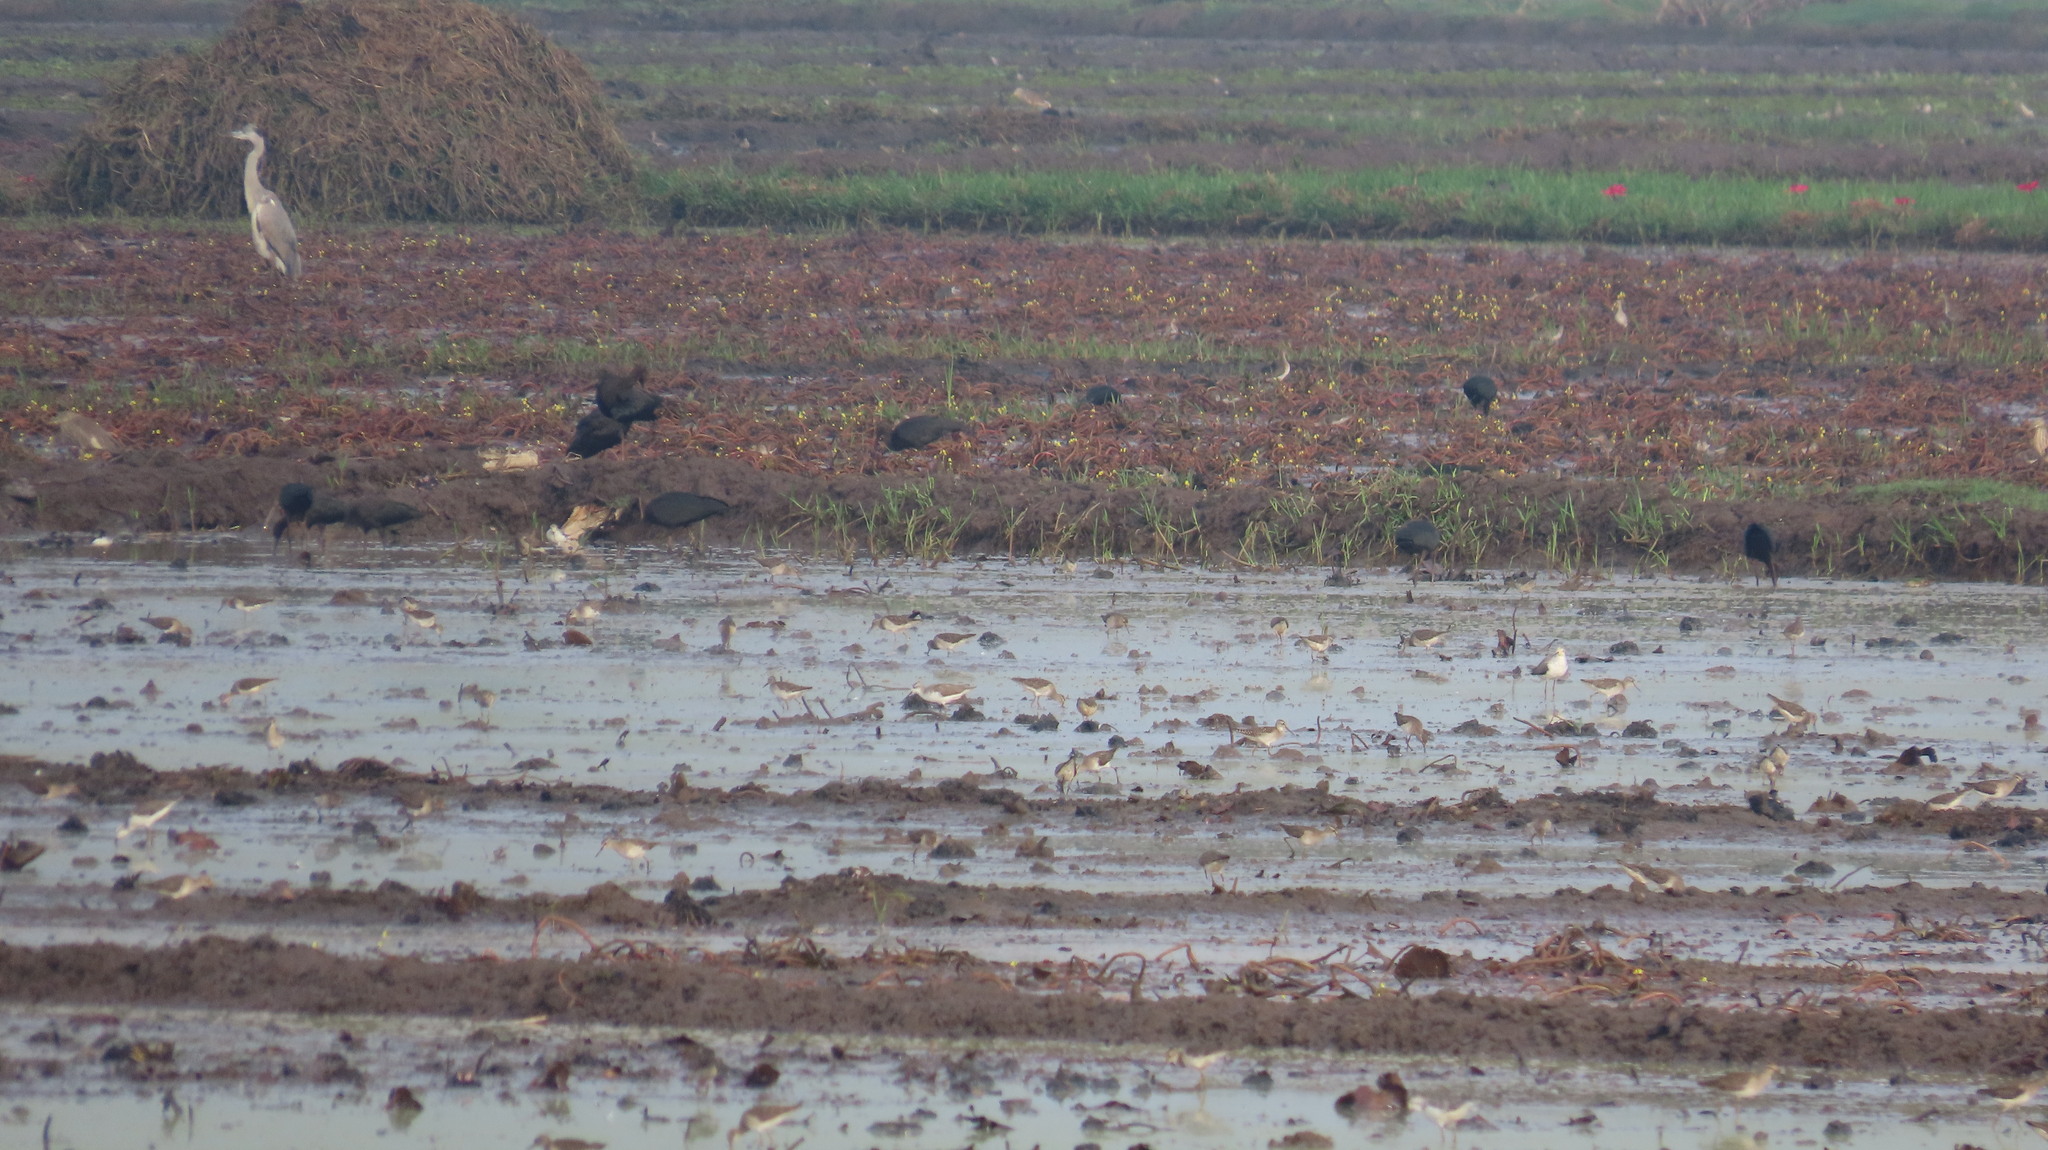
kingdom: Animalia
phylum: Chordata
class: Aves
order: Pelecaniformes
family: Threskiornithidae
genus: Plegadis
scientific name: Plegadis falcinellus
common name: Glossy ibis
